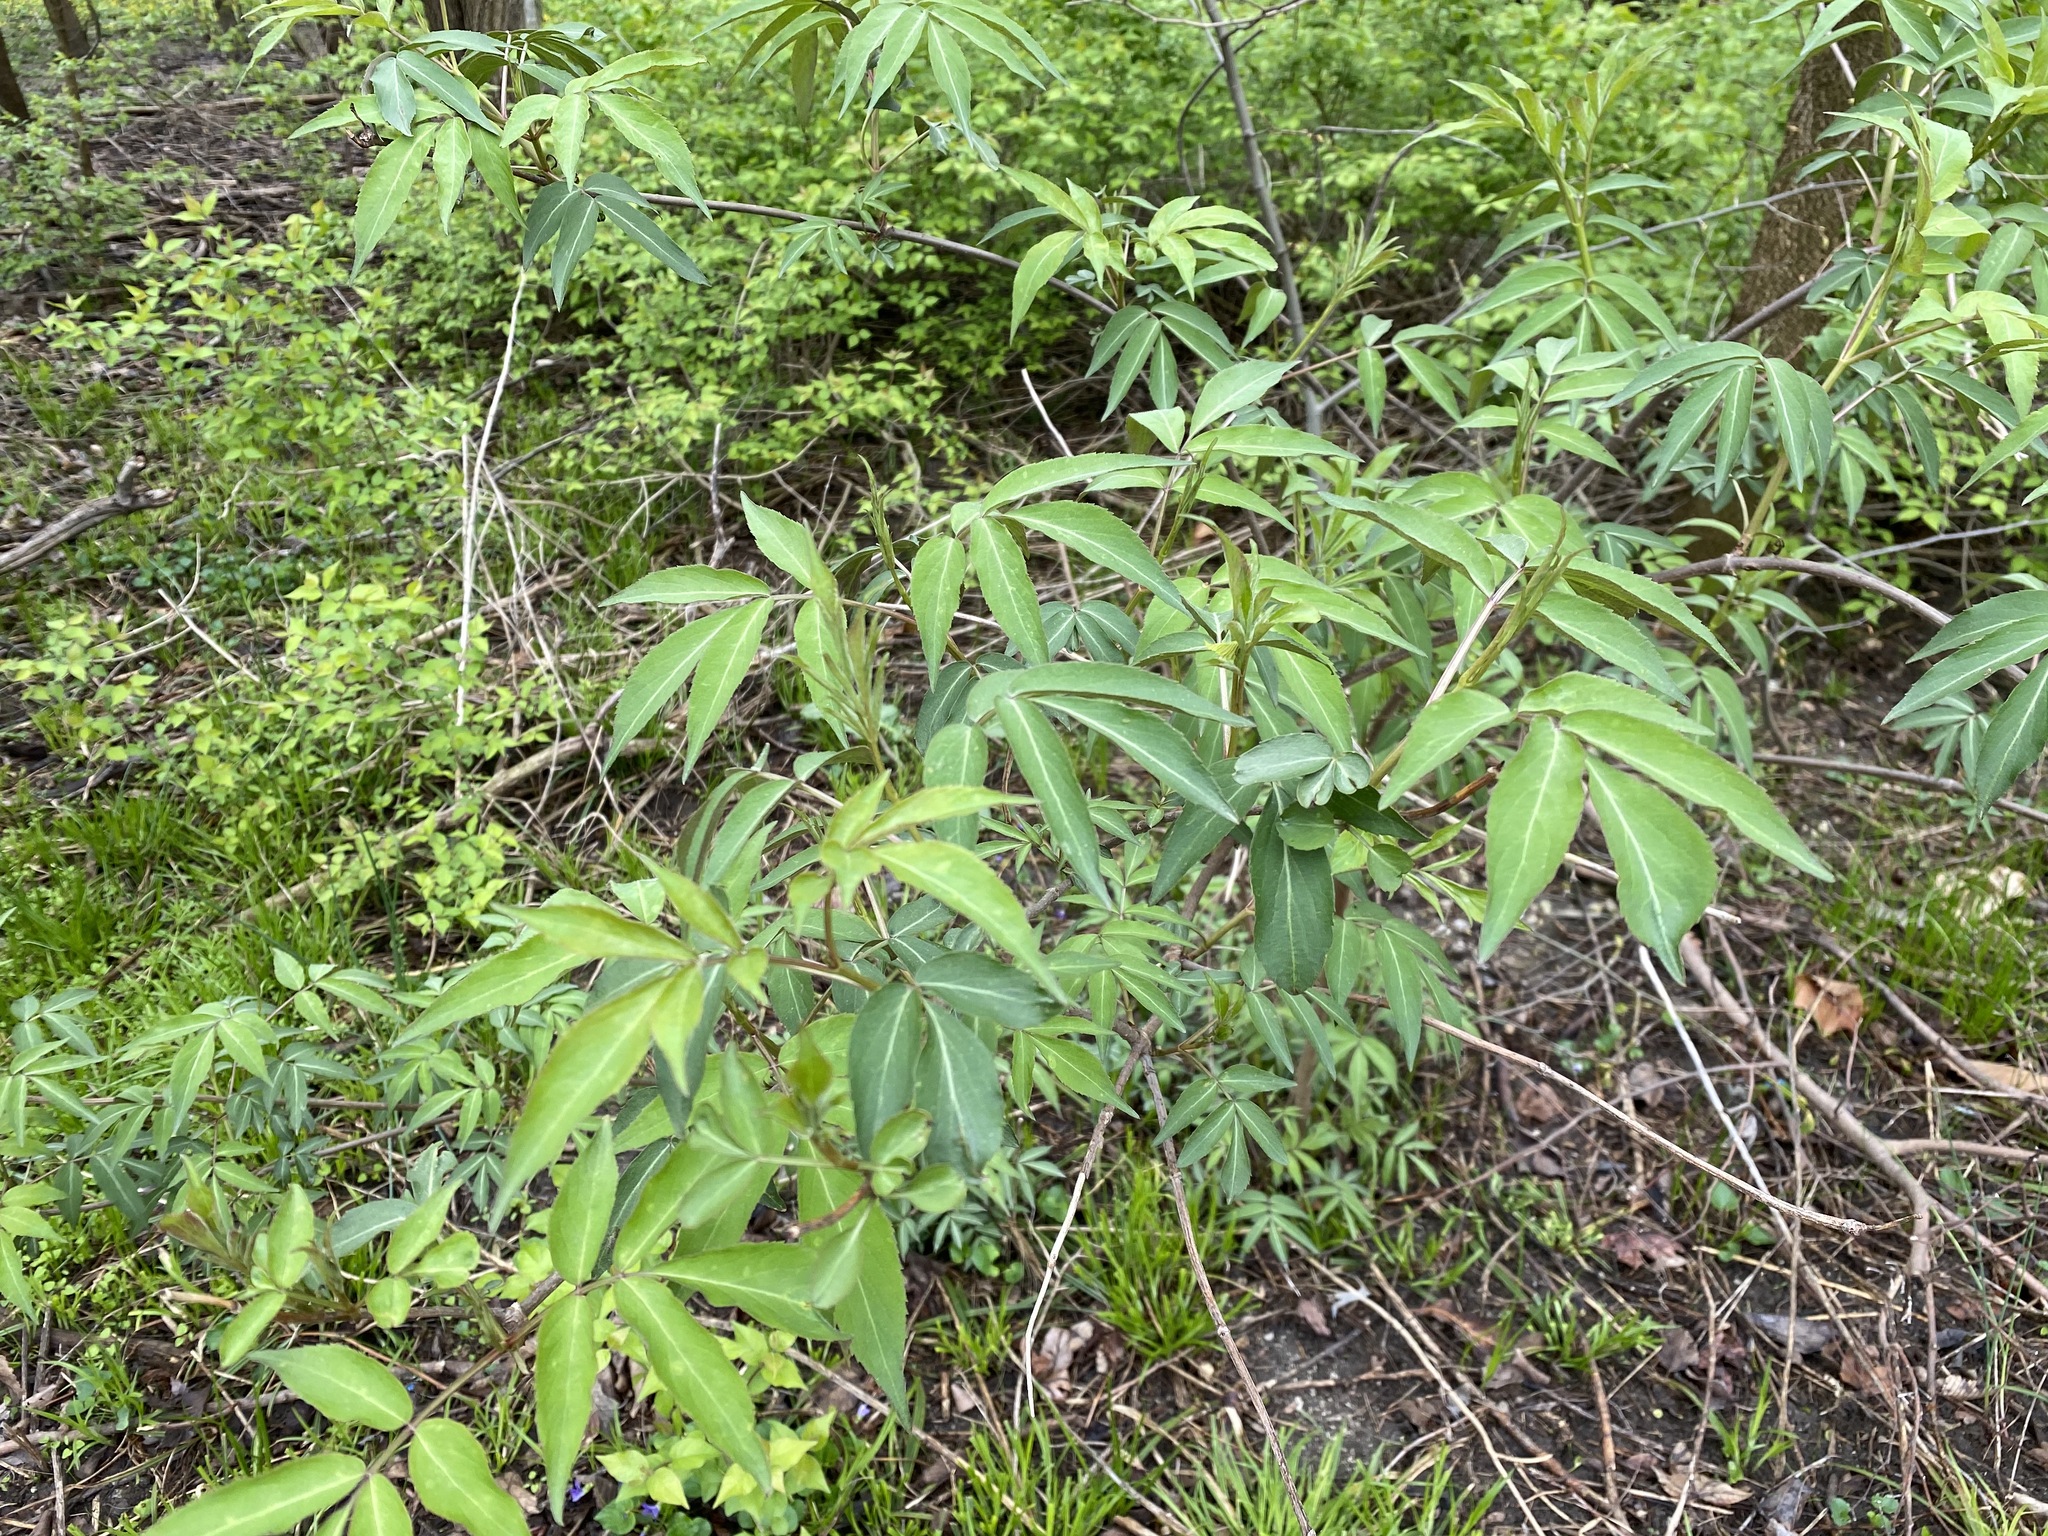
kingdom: Plantae
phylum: Tracheophyta
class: Magnoliopsida
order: Dipsacales
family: Viburnaceae
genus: Sambucus
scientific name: Sambucus canadensis
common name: American elder
